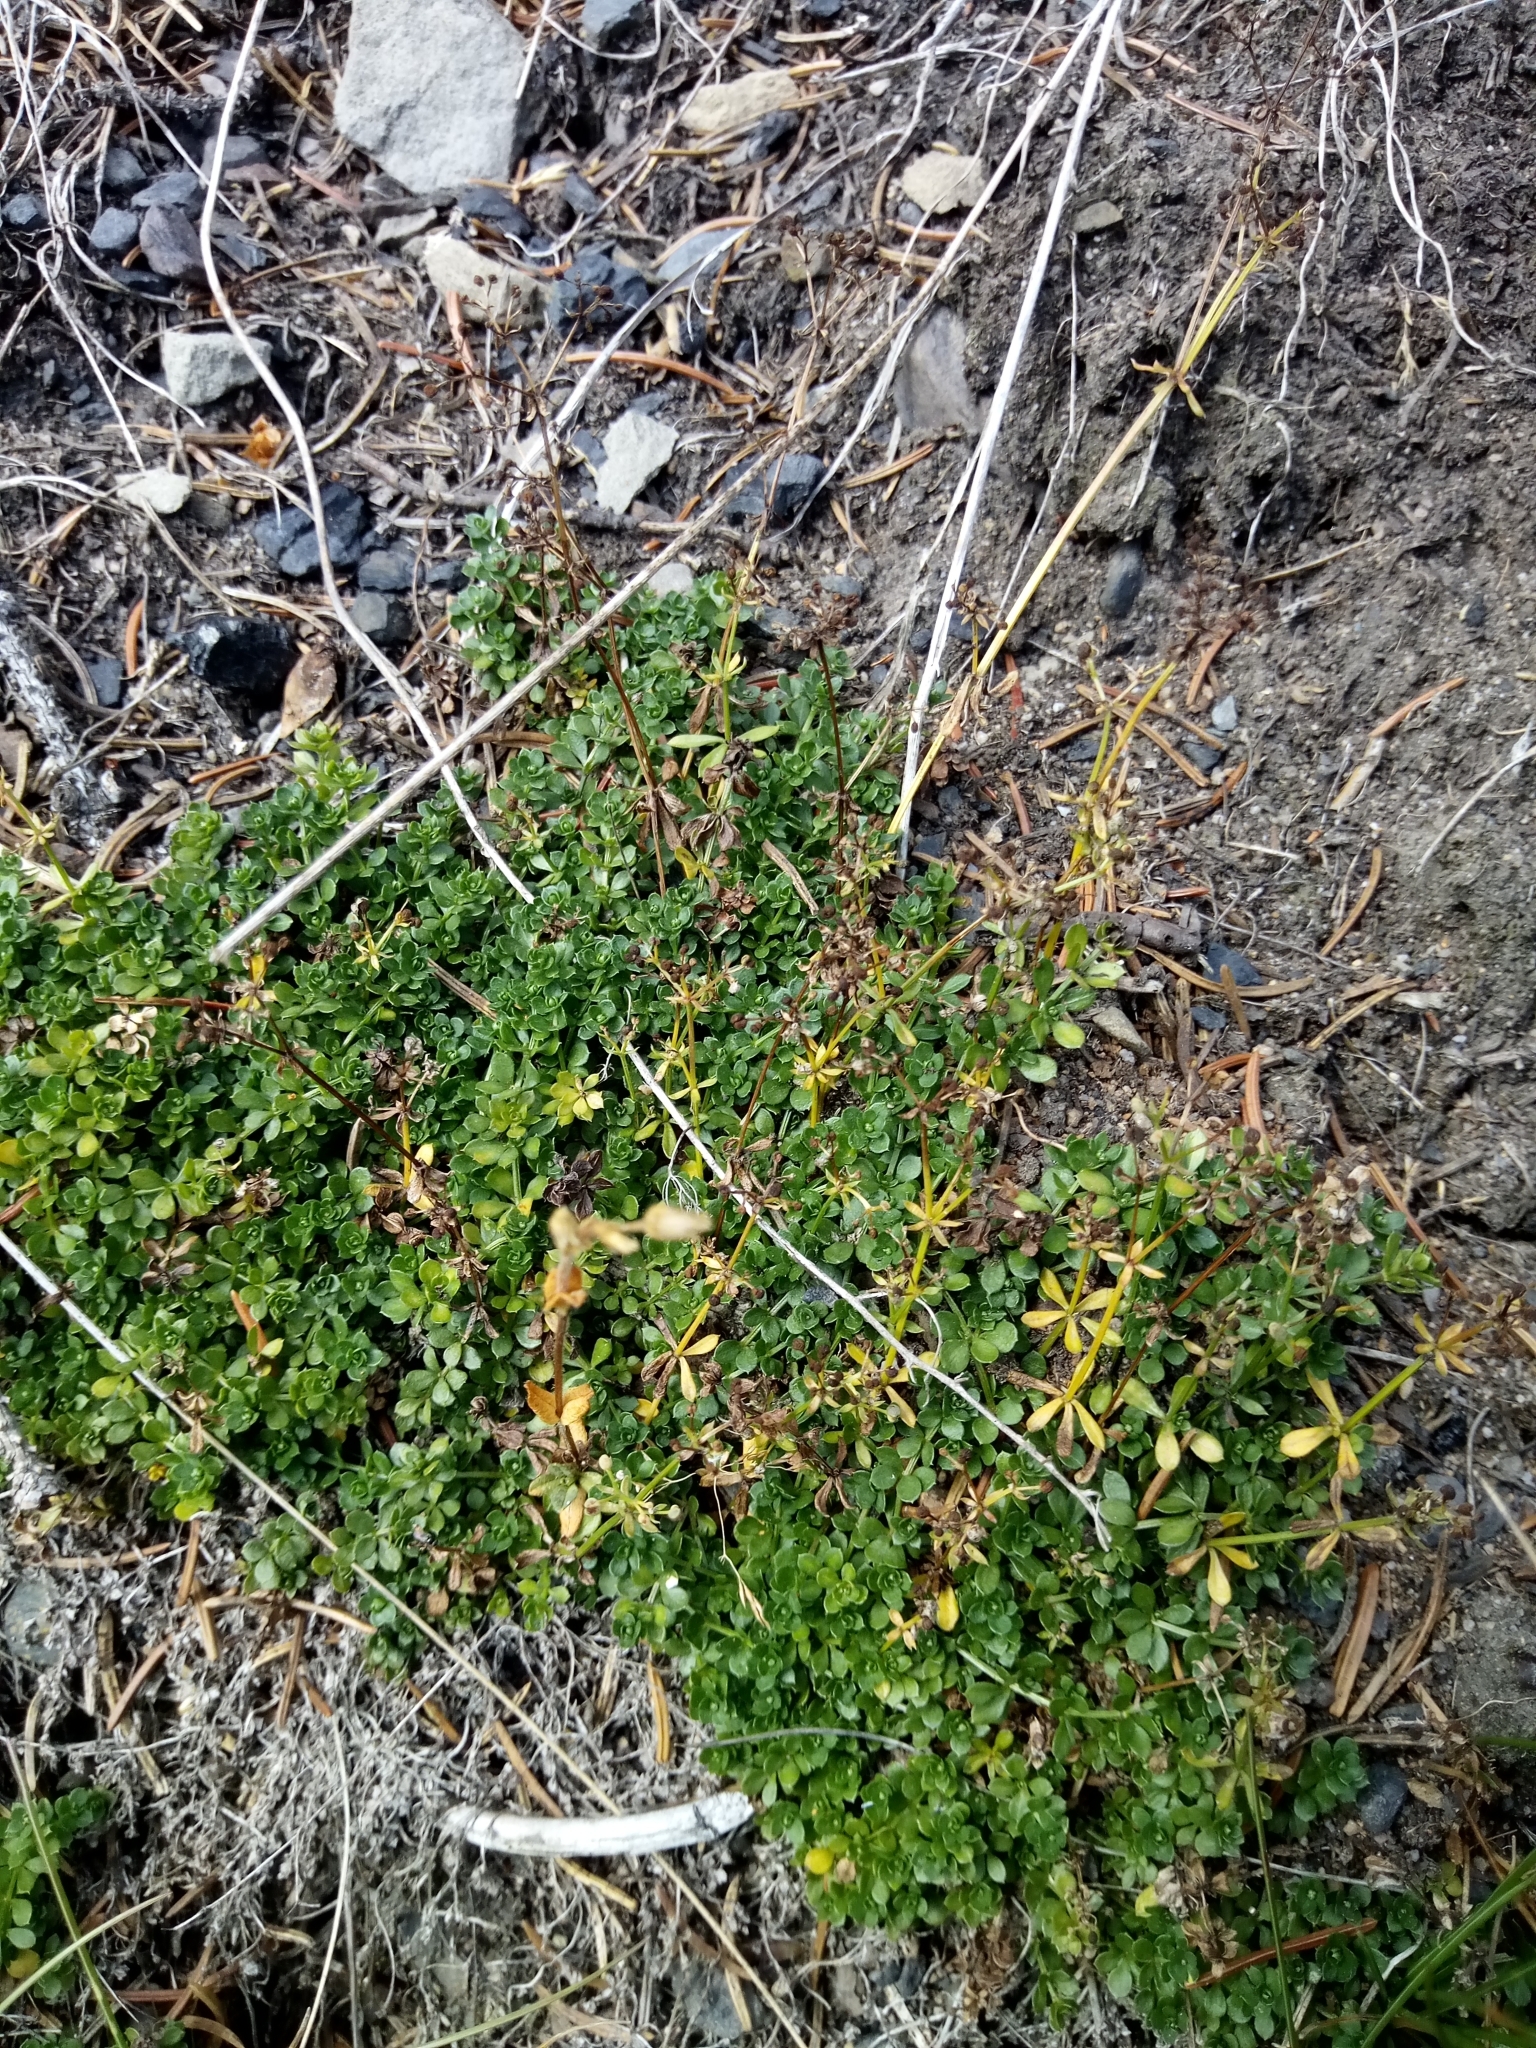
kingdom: Plantae
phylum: Tracheophyta
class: Magnoliopsida
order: Gentianales
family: Rubiaceae
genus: Galium
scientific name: Galium saxatile
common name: Heath bedstraw
